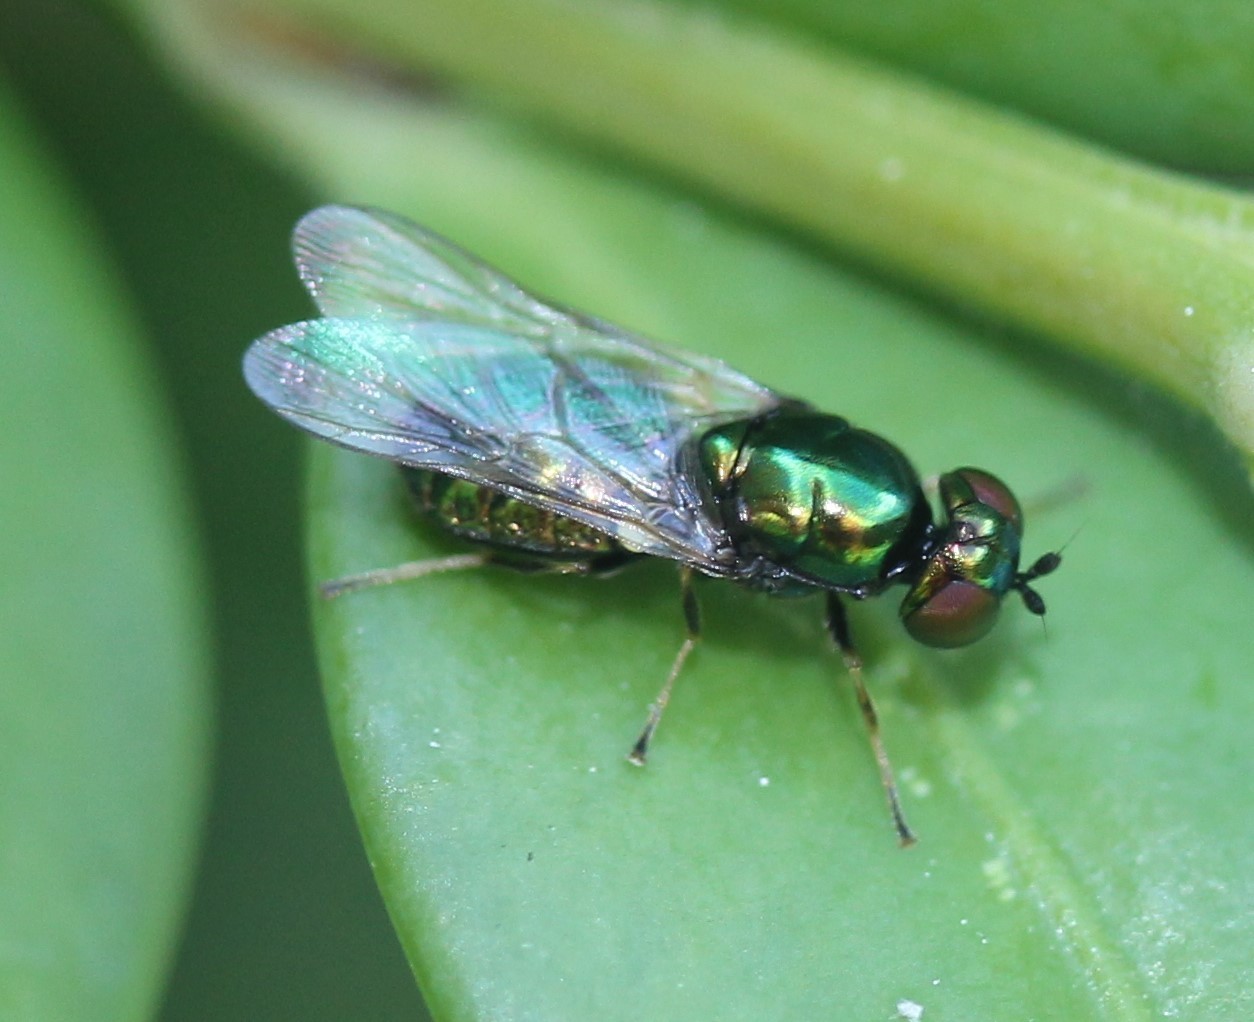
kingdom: Animalia
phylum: Arthropoda
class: Insecta
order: Diptera
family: Stratiomyidae
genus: Microchrysa
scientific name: Microchrysa polita
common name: Black-horned gem
